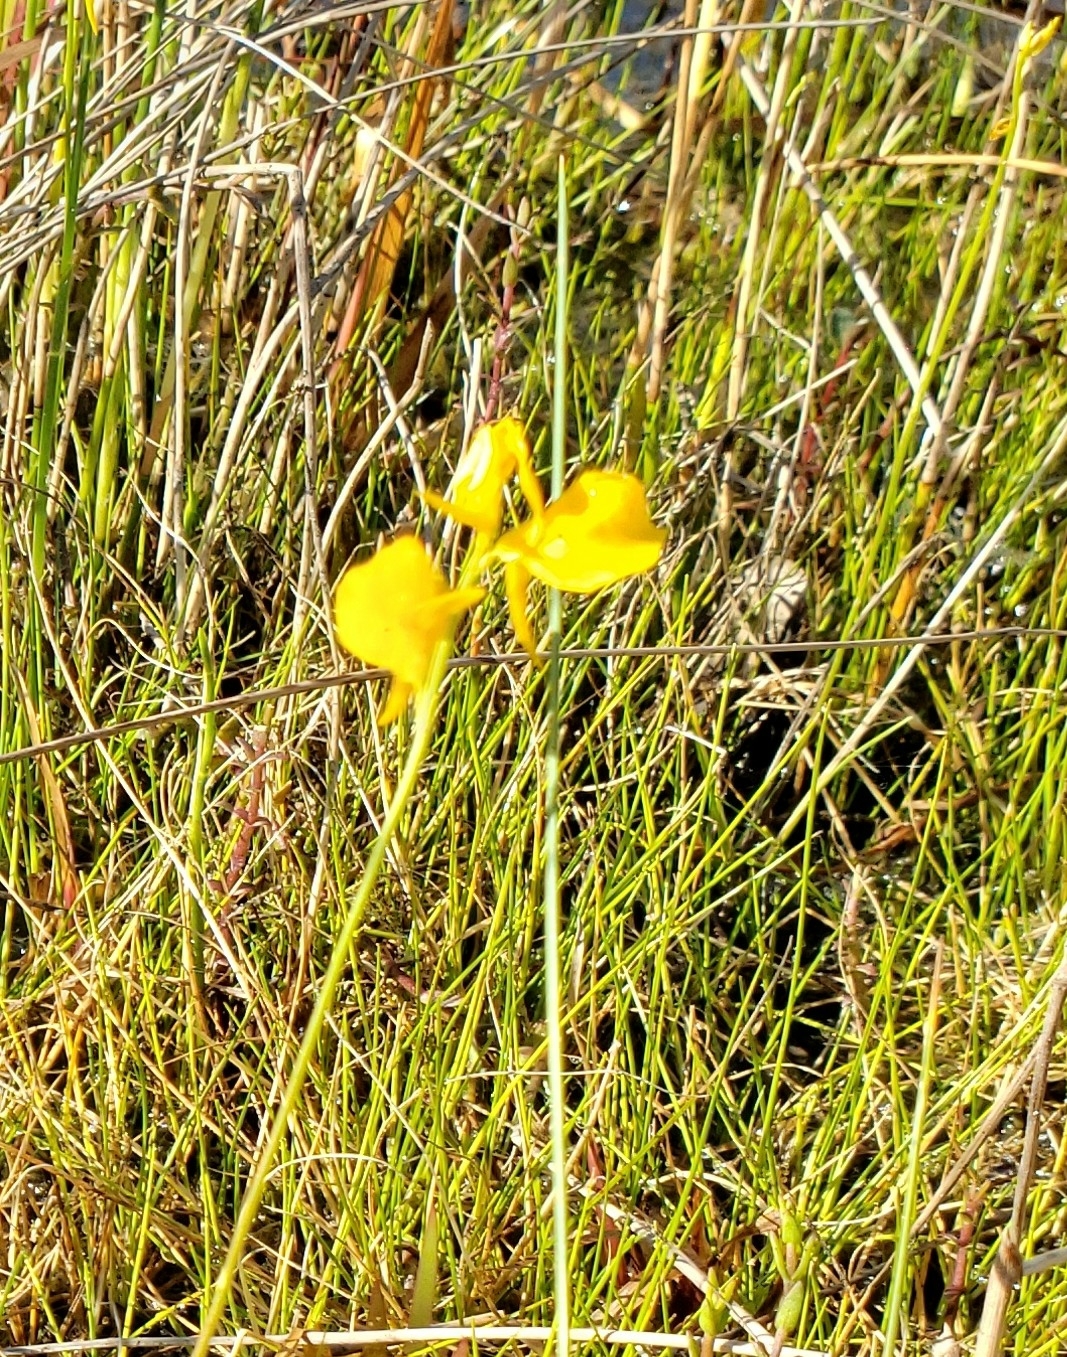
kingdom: Plantae
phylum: Tracheophyta
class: Magnoliopsida
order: Lamiales
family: Lentibulariaceae
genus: Utricularia
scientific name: Utricularia cornuta
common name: Horned bladderwort
